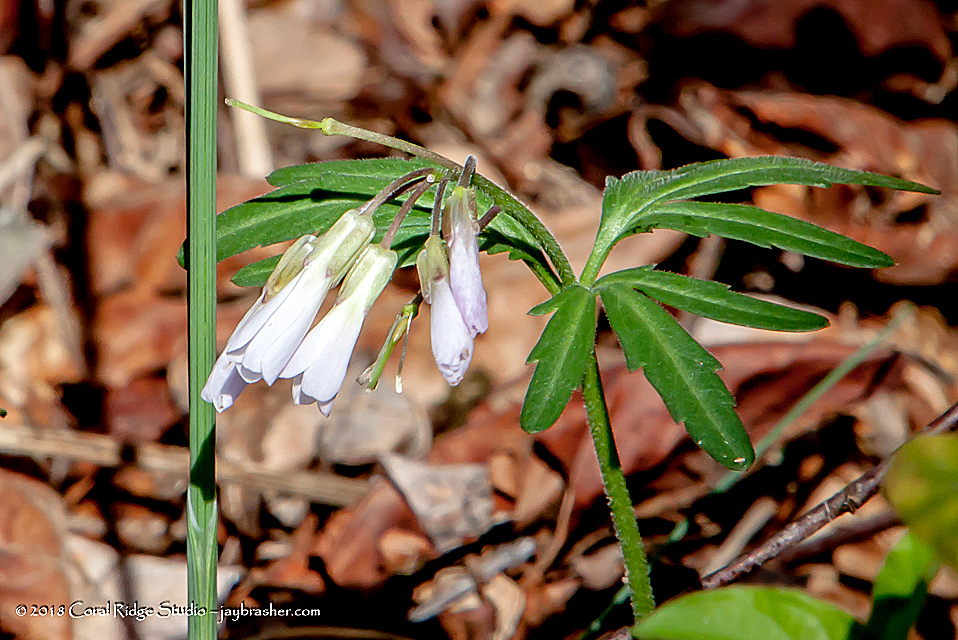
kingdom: Plantae
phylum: Tracheophyta
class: Magnoliopsida
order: Brassicales
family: Brassicaceae
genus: Cardamine
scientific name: Cardamine concatenata
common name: Cut-leaf toothcup
